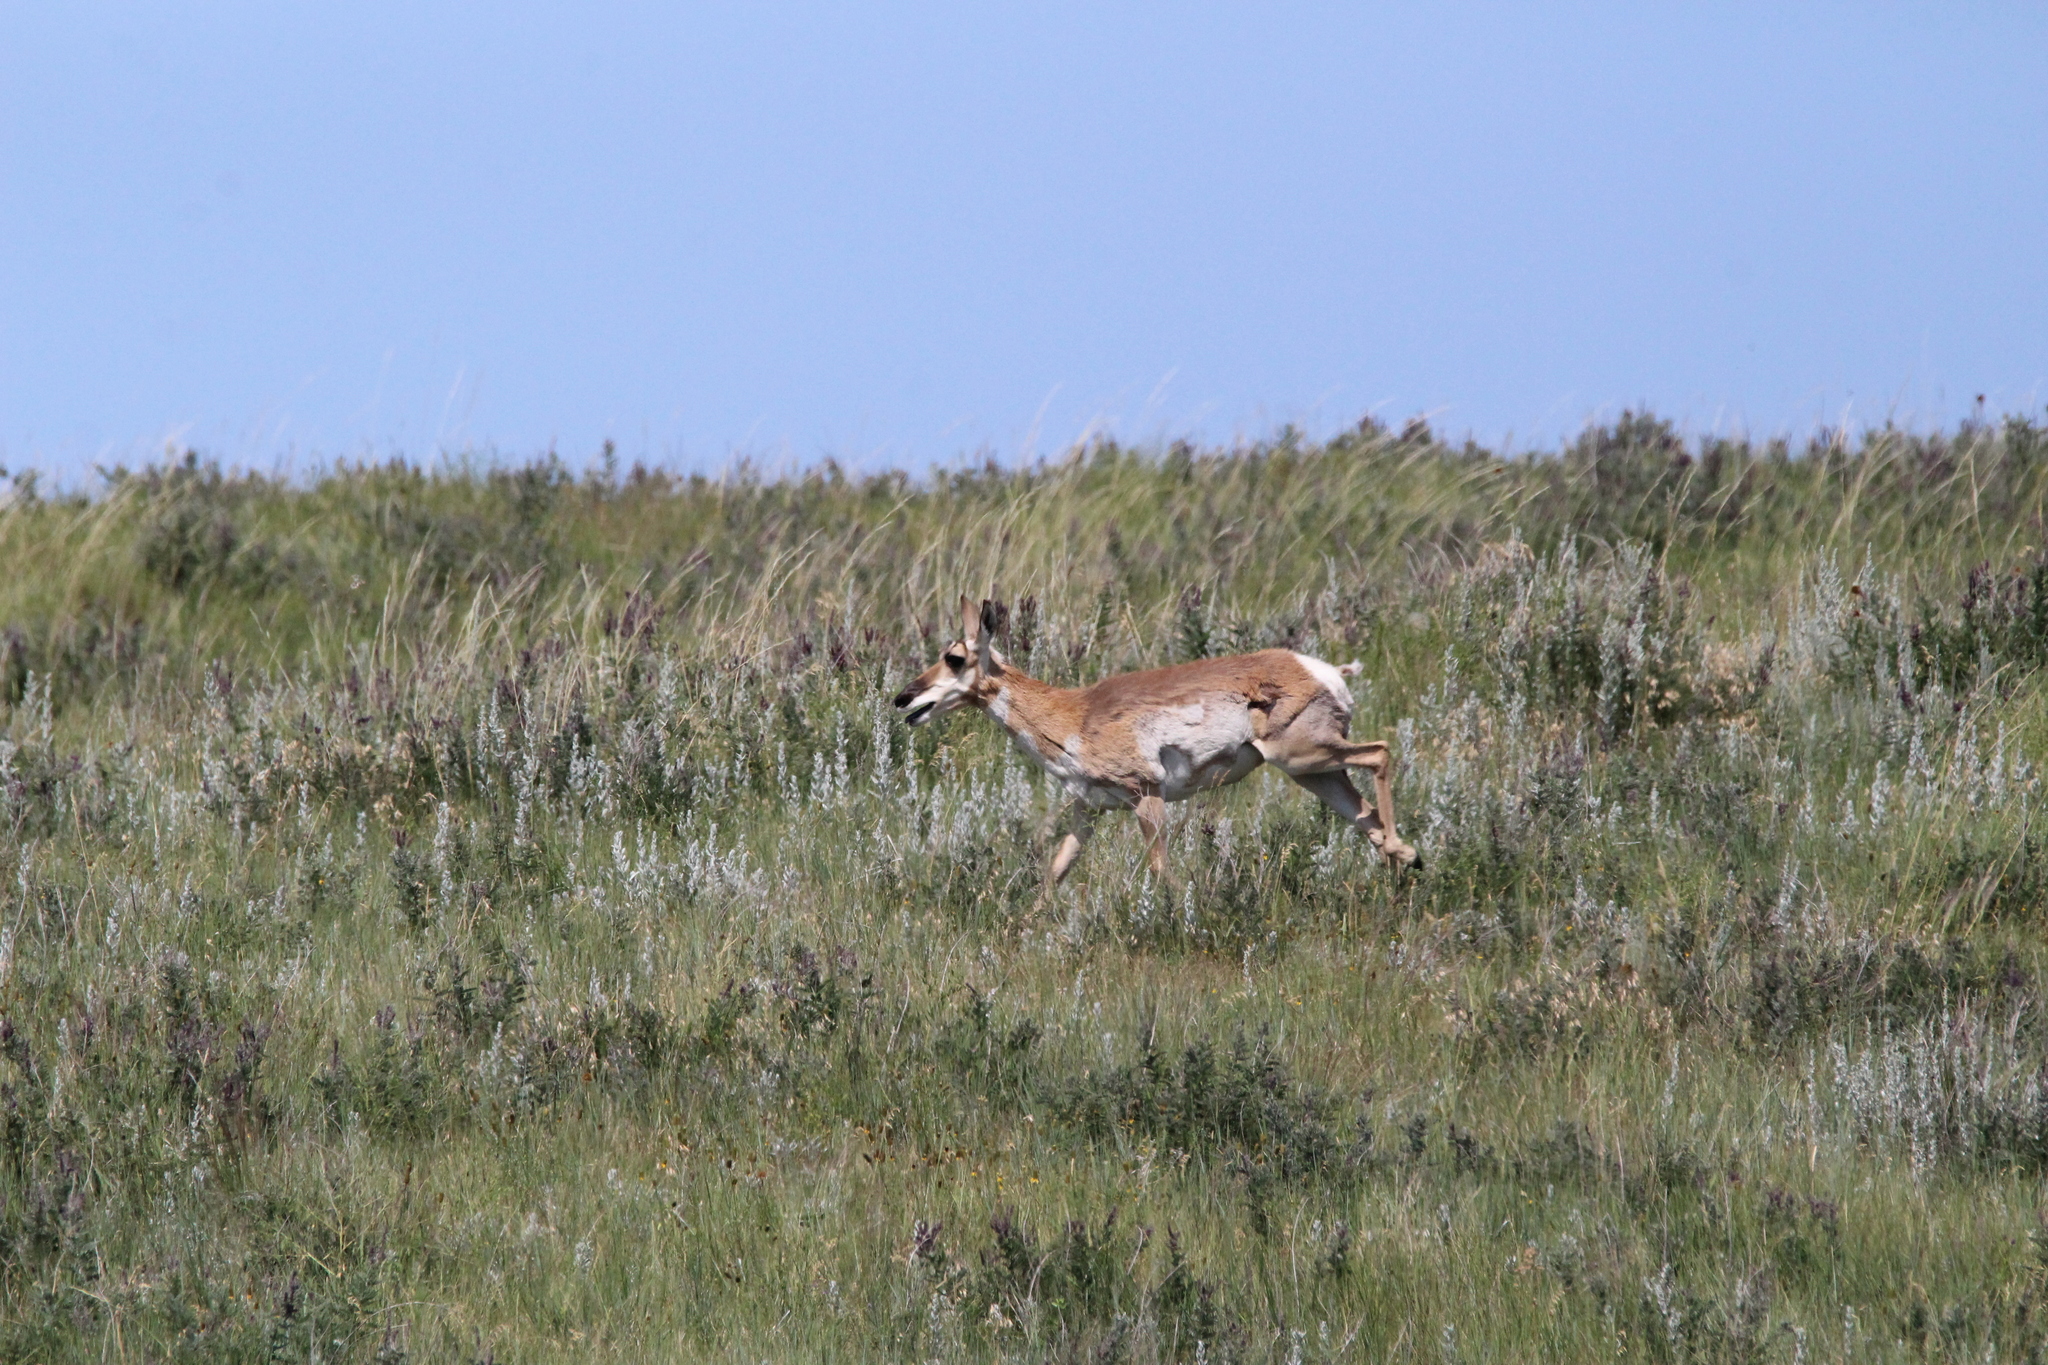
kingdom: Animalia
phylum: Chordata
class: Mammalia
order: Artiodactyla
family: Antilocapridae
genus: Antilocapra
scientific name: Antilocapra americana
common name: Pronghorn
